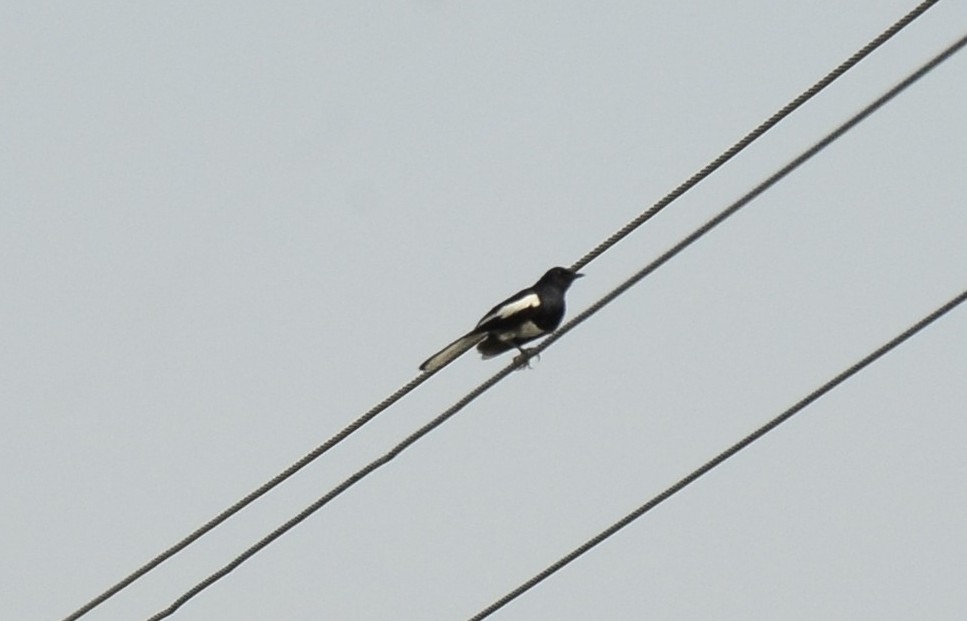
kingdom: Animalia
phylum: Chordata
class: Aves
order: Passeriformes
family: Muscicapidae
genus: Copsychus
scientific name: Copsychus saularis
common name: Oriental magpie-robin
